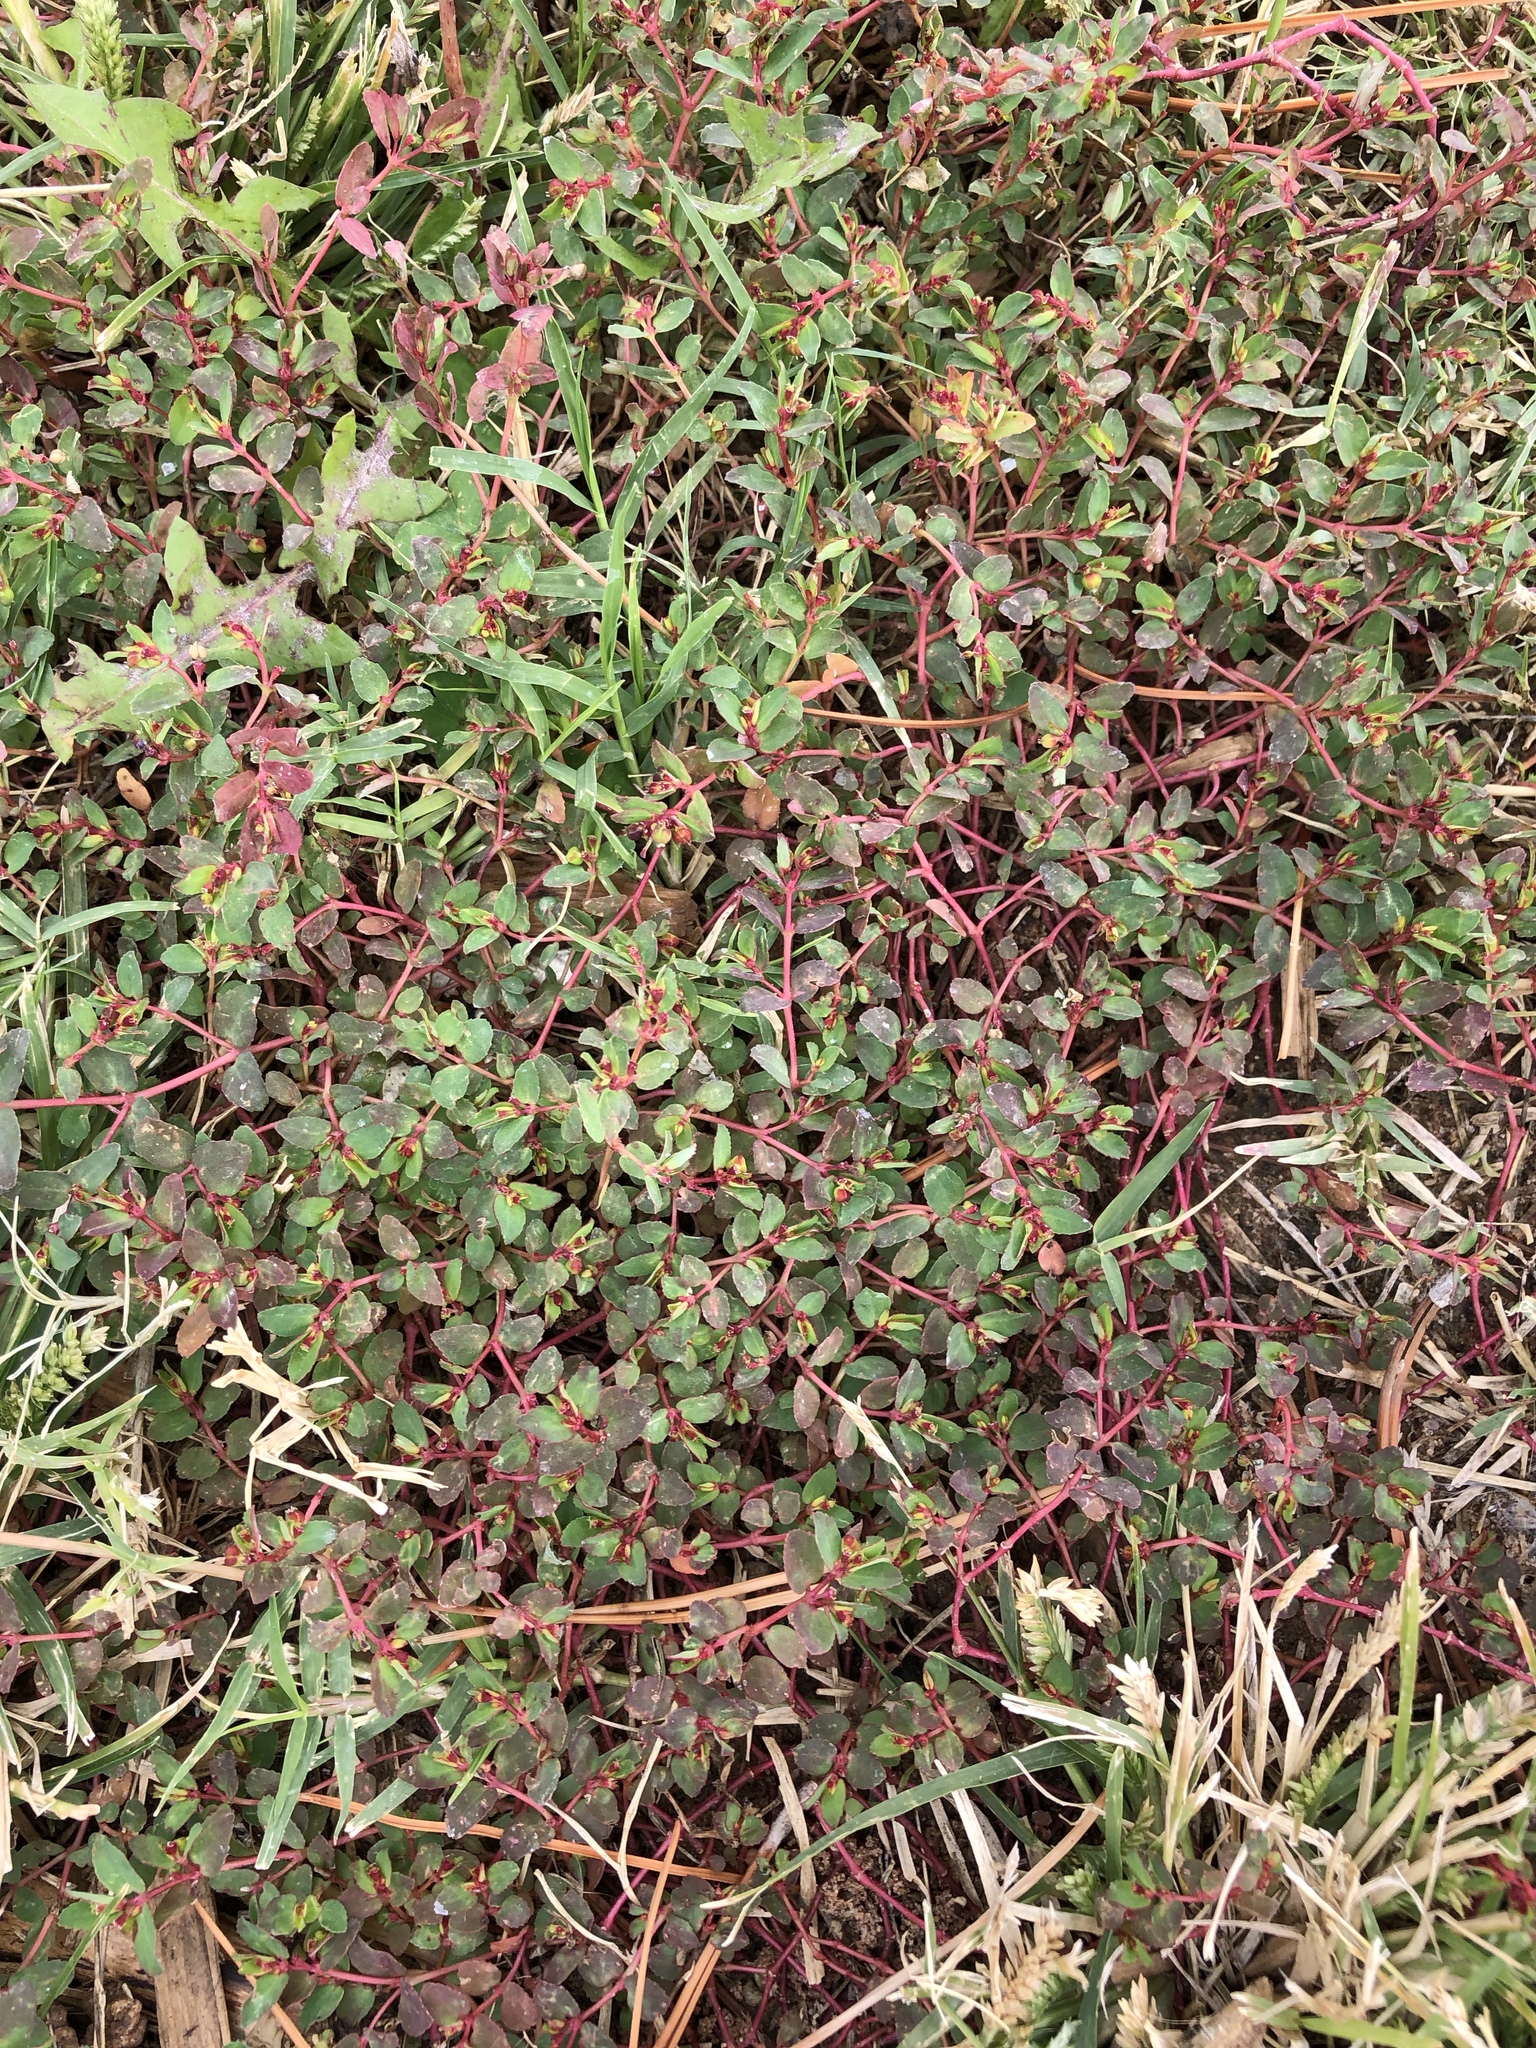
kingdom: Plantae
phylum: Tracheophyta
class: Magnoliopsida
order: Malpighiales
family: Euphorbiaceae
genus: Euphorbia
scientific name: Euphorbia vermiculata
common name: Hairy spurge
